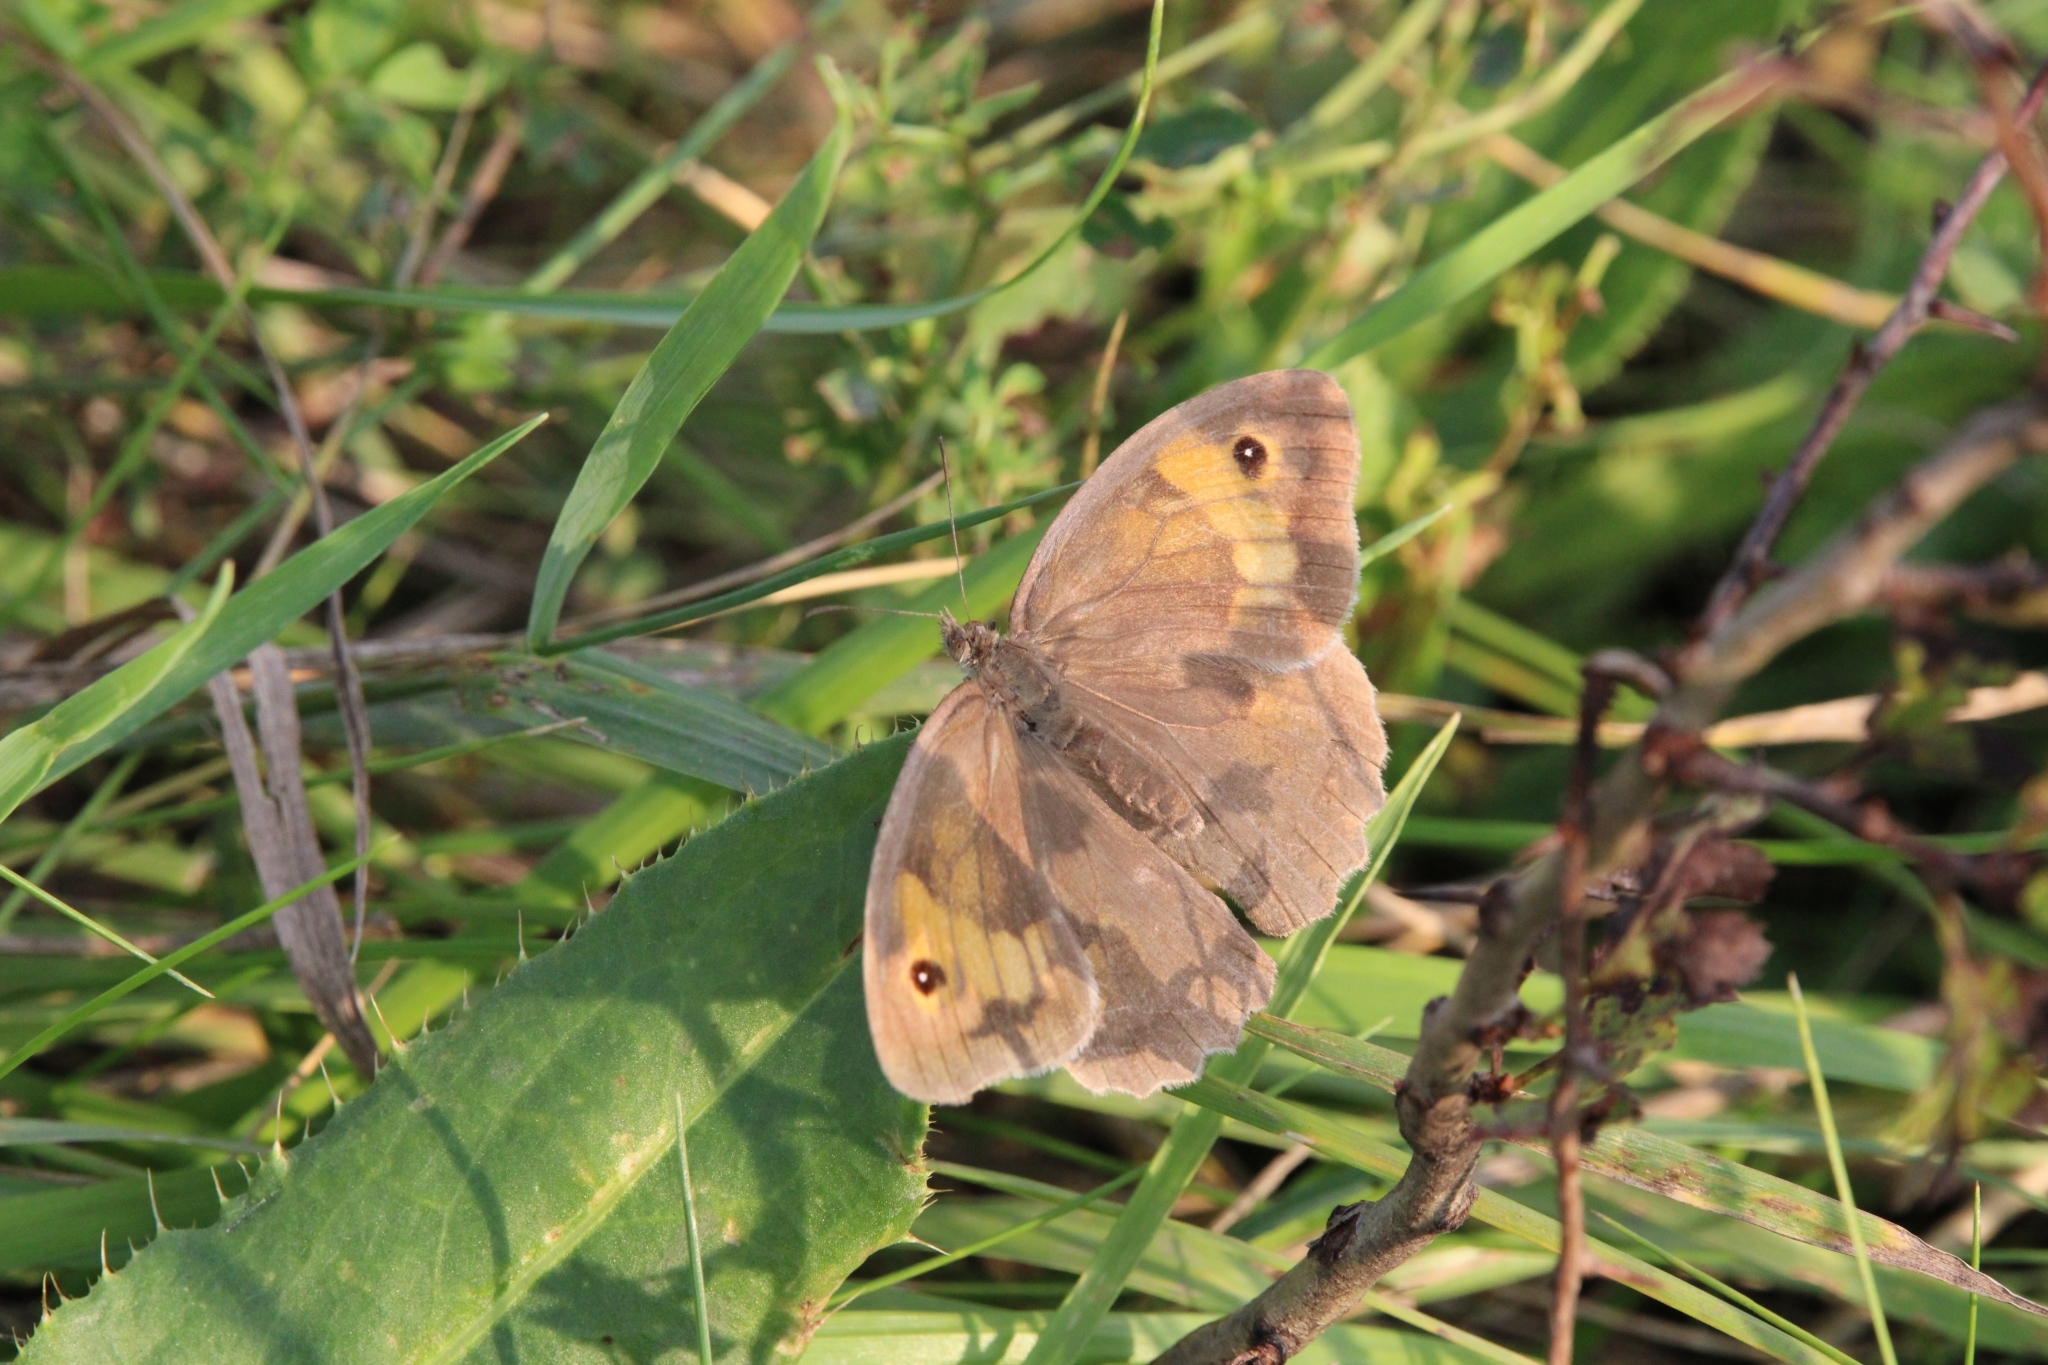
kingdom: Animalia
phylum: Arthropoda
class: Insecta
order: Lepidoptera
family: Nymphalidae
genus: Maniola
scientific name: Maniola jurtina
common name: Meadow brown
